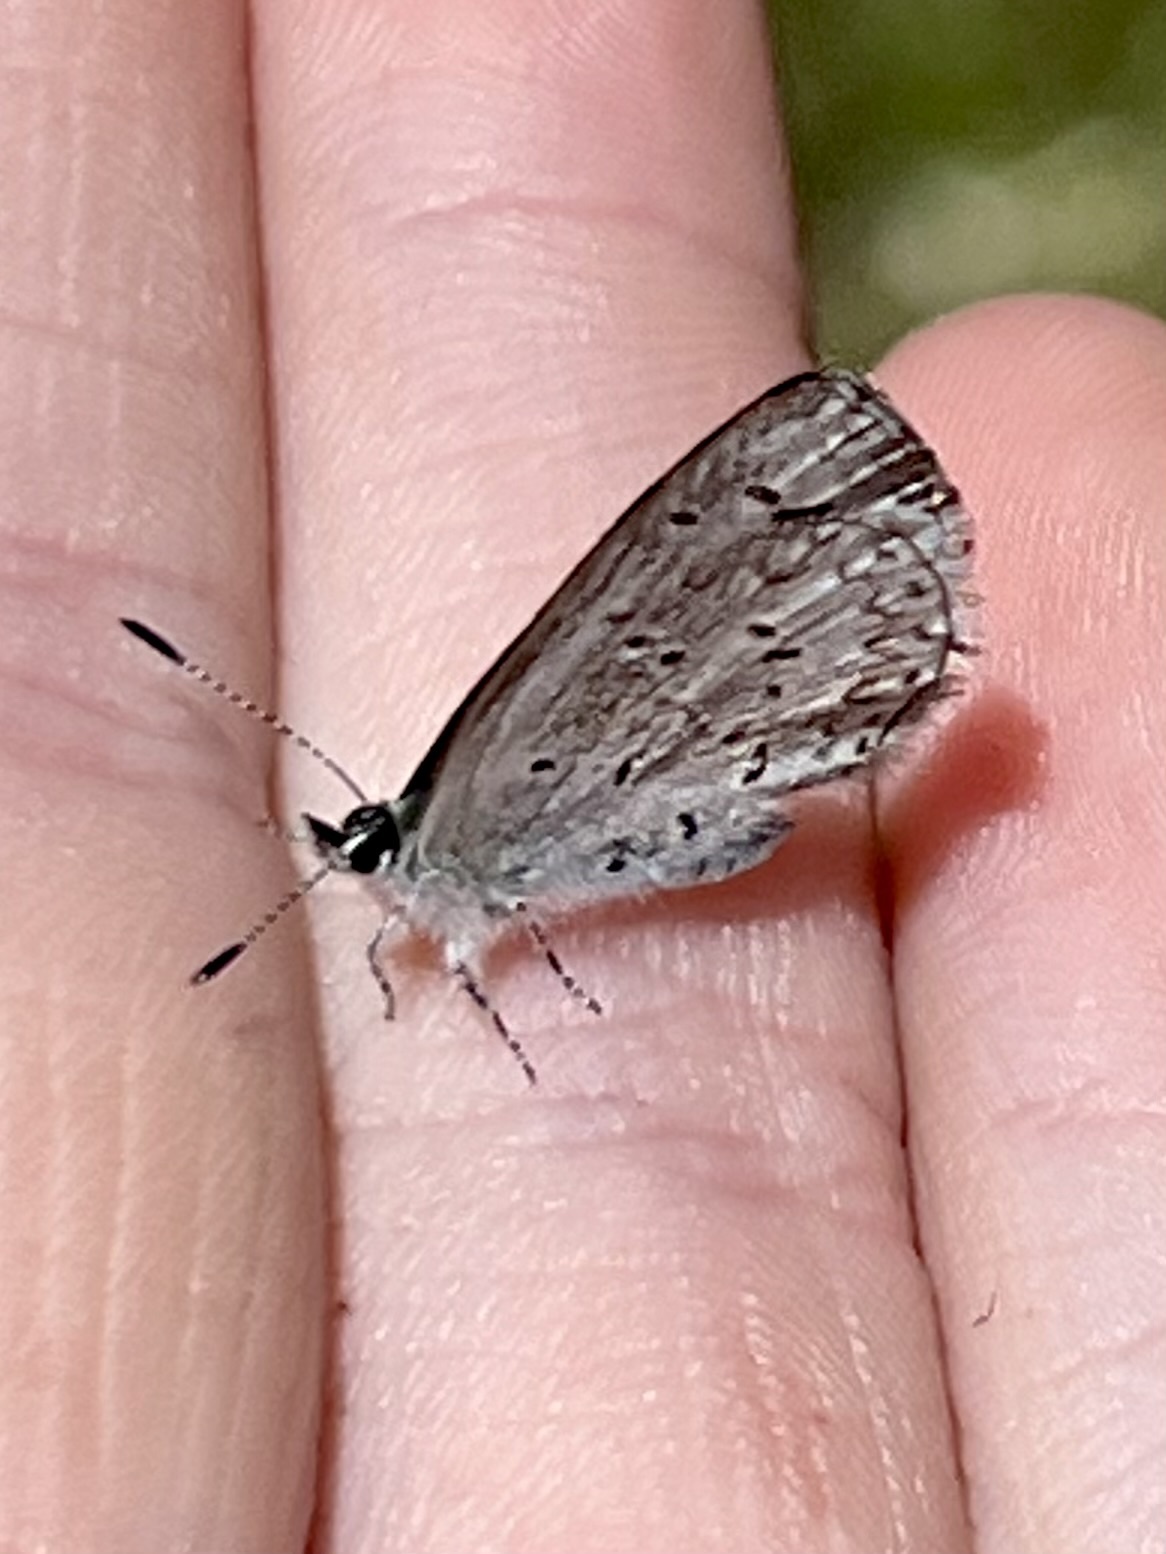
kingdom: Animalia
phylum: Arthropoda
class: Insecta
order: Lepidoptera
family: Lycaenidae
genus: Celastrina
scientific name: Celastrina ladon
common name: Spring azure
